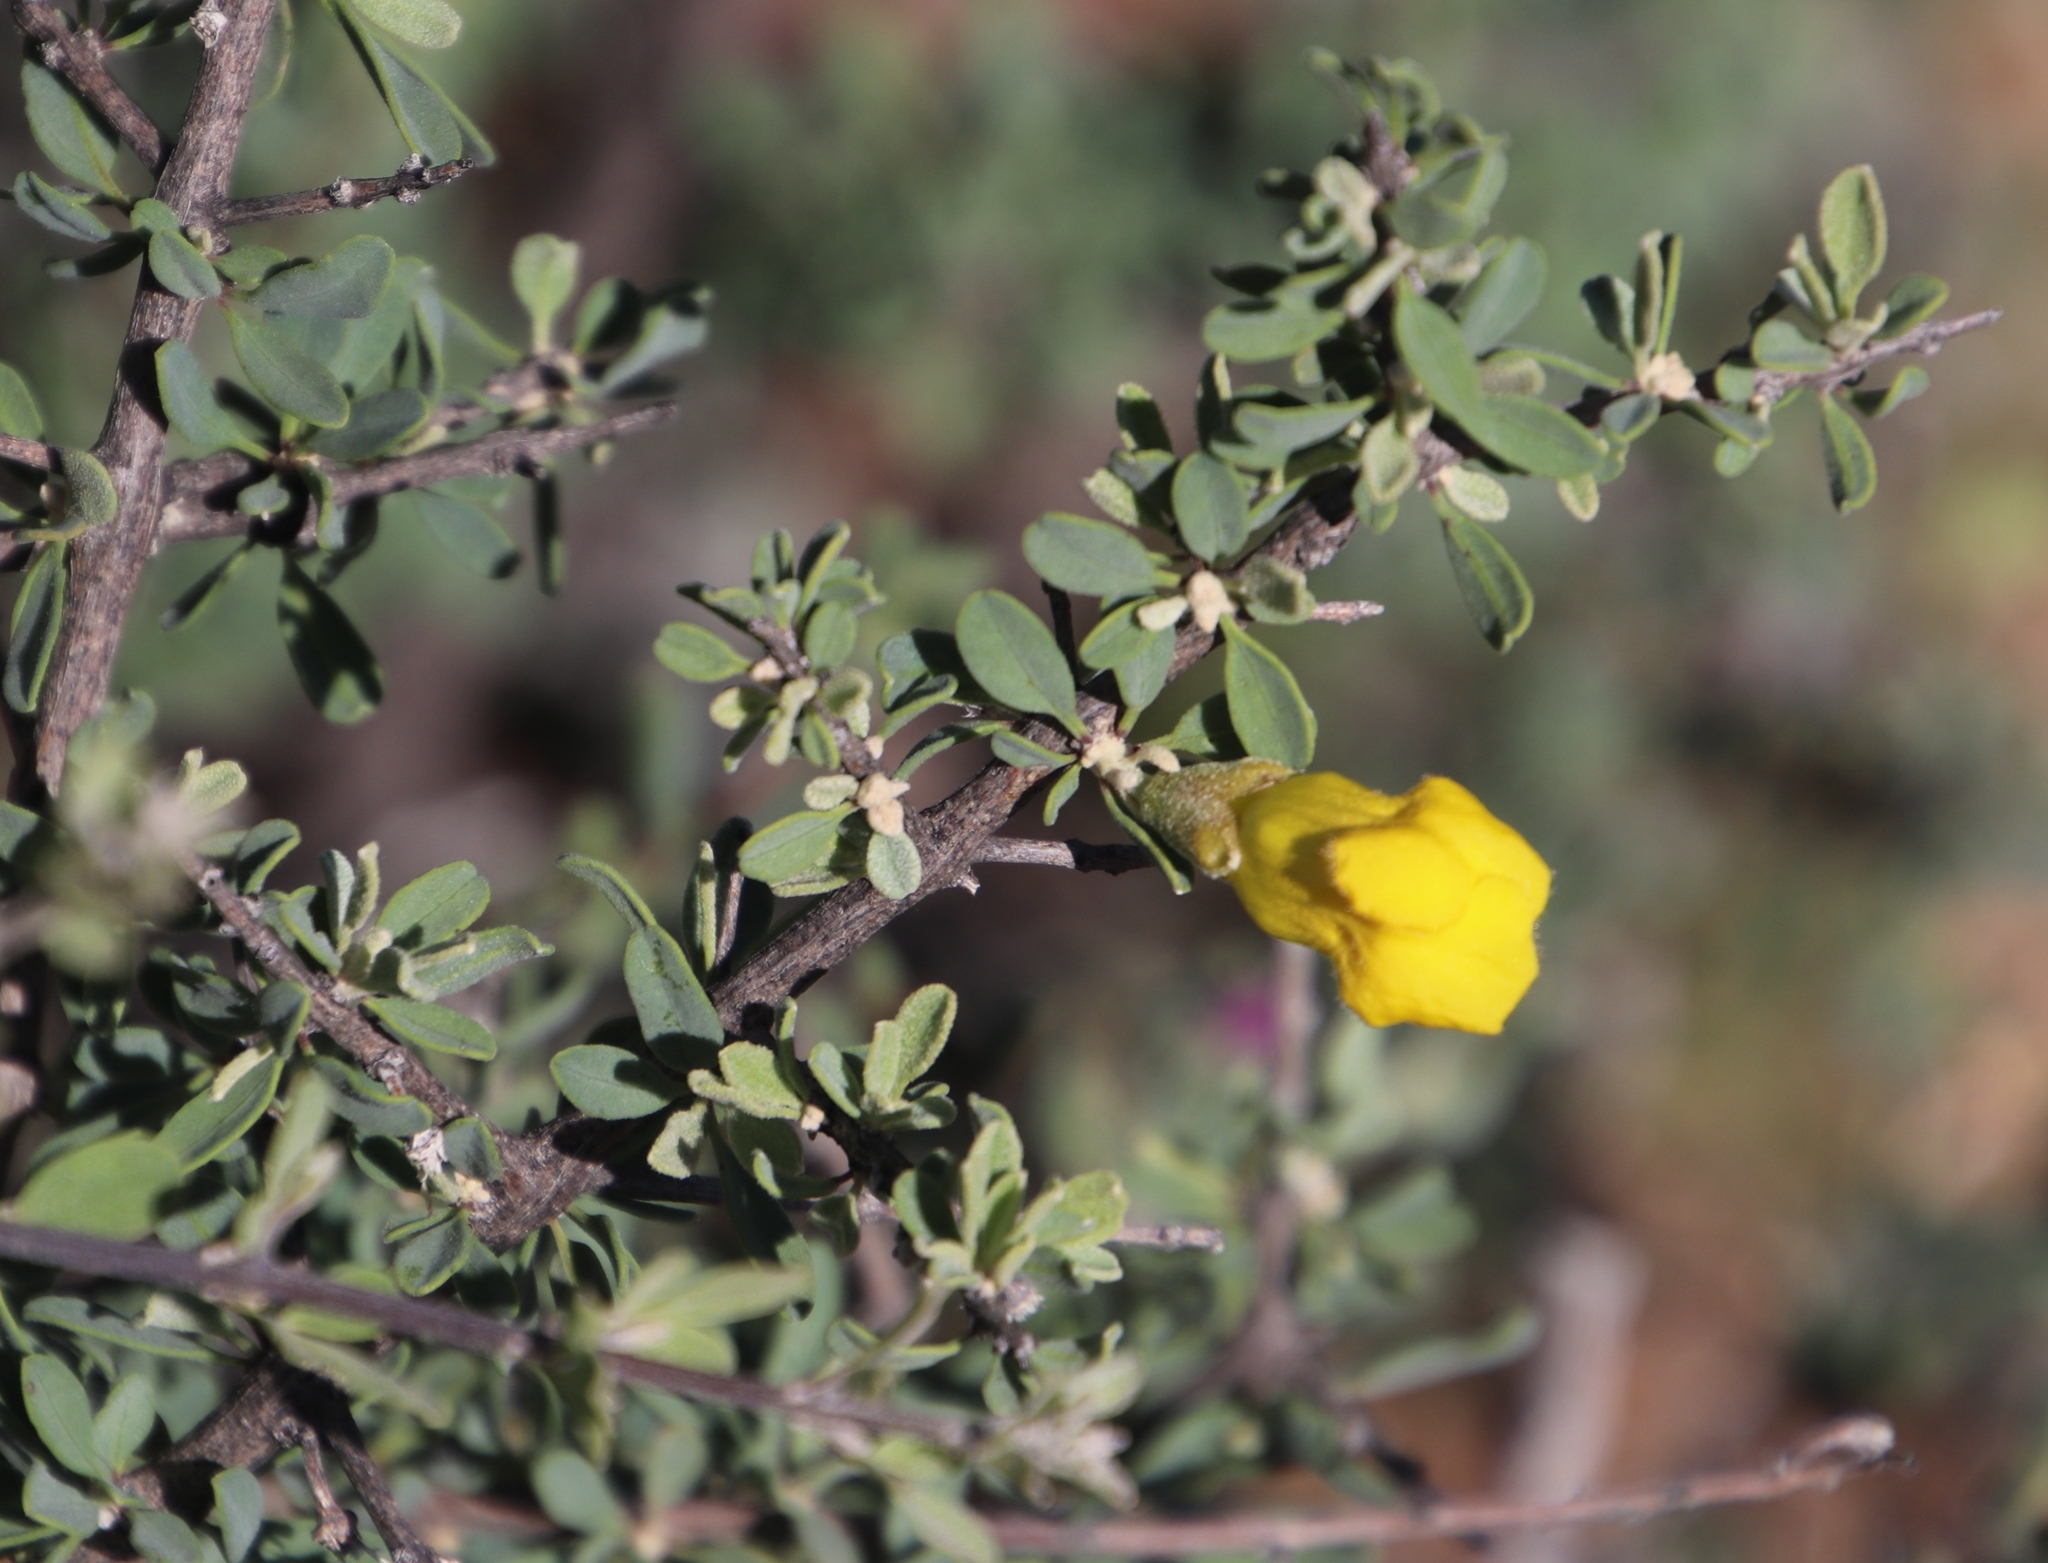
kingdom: Plantae
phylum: Tracheophyta
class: Magnoliopsida
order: Lamiales
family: Bignoniaceae
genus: Rhigozum
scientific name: Rhigozum obovatum
